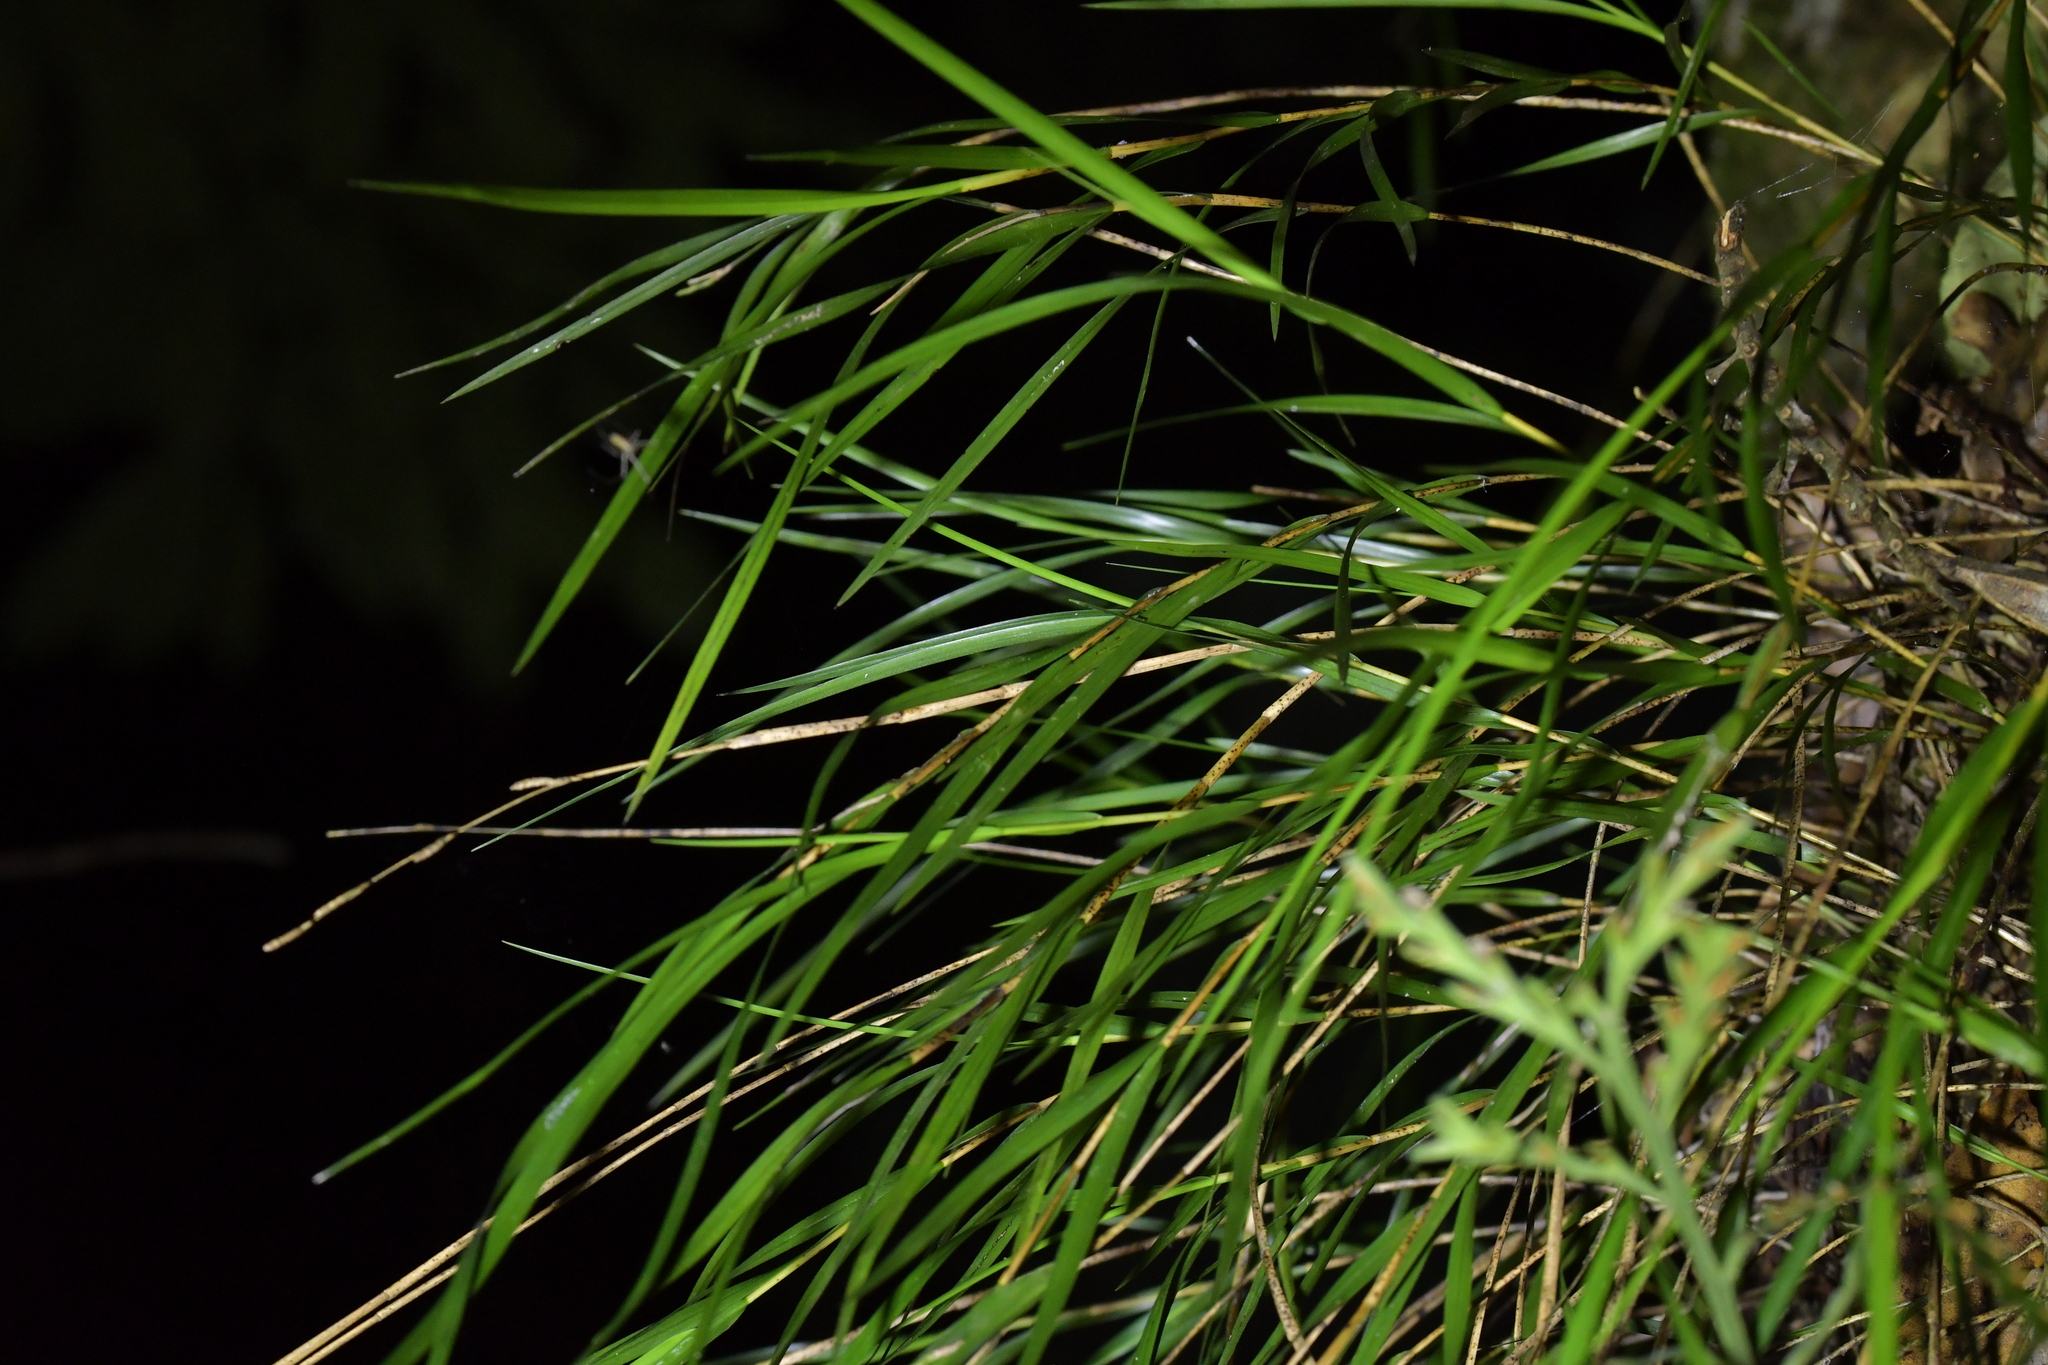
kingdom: Plantae
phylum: Tracheophyta
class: Liliopsida
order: Asparagales
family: Orchidaceae
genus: Earina
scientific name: Earina mucronata
